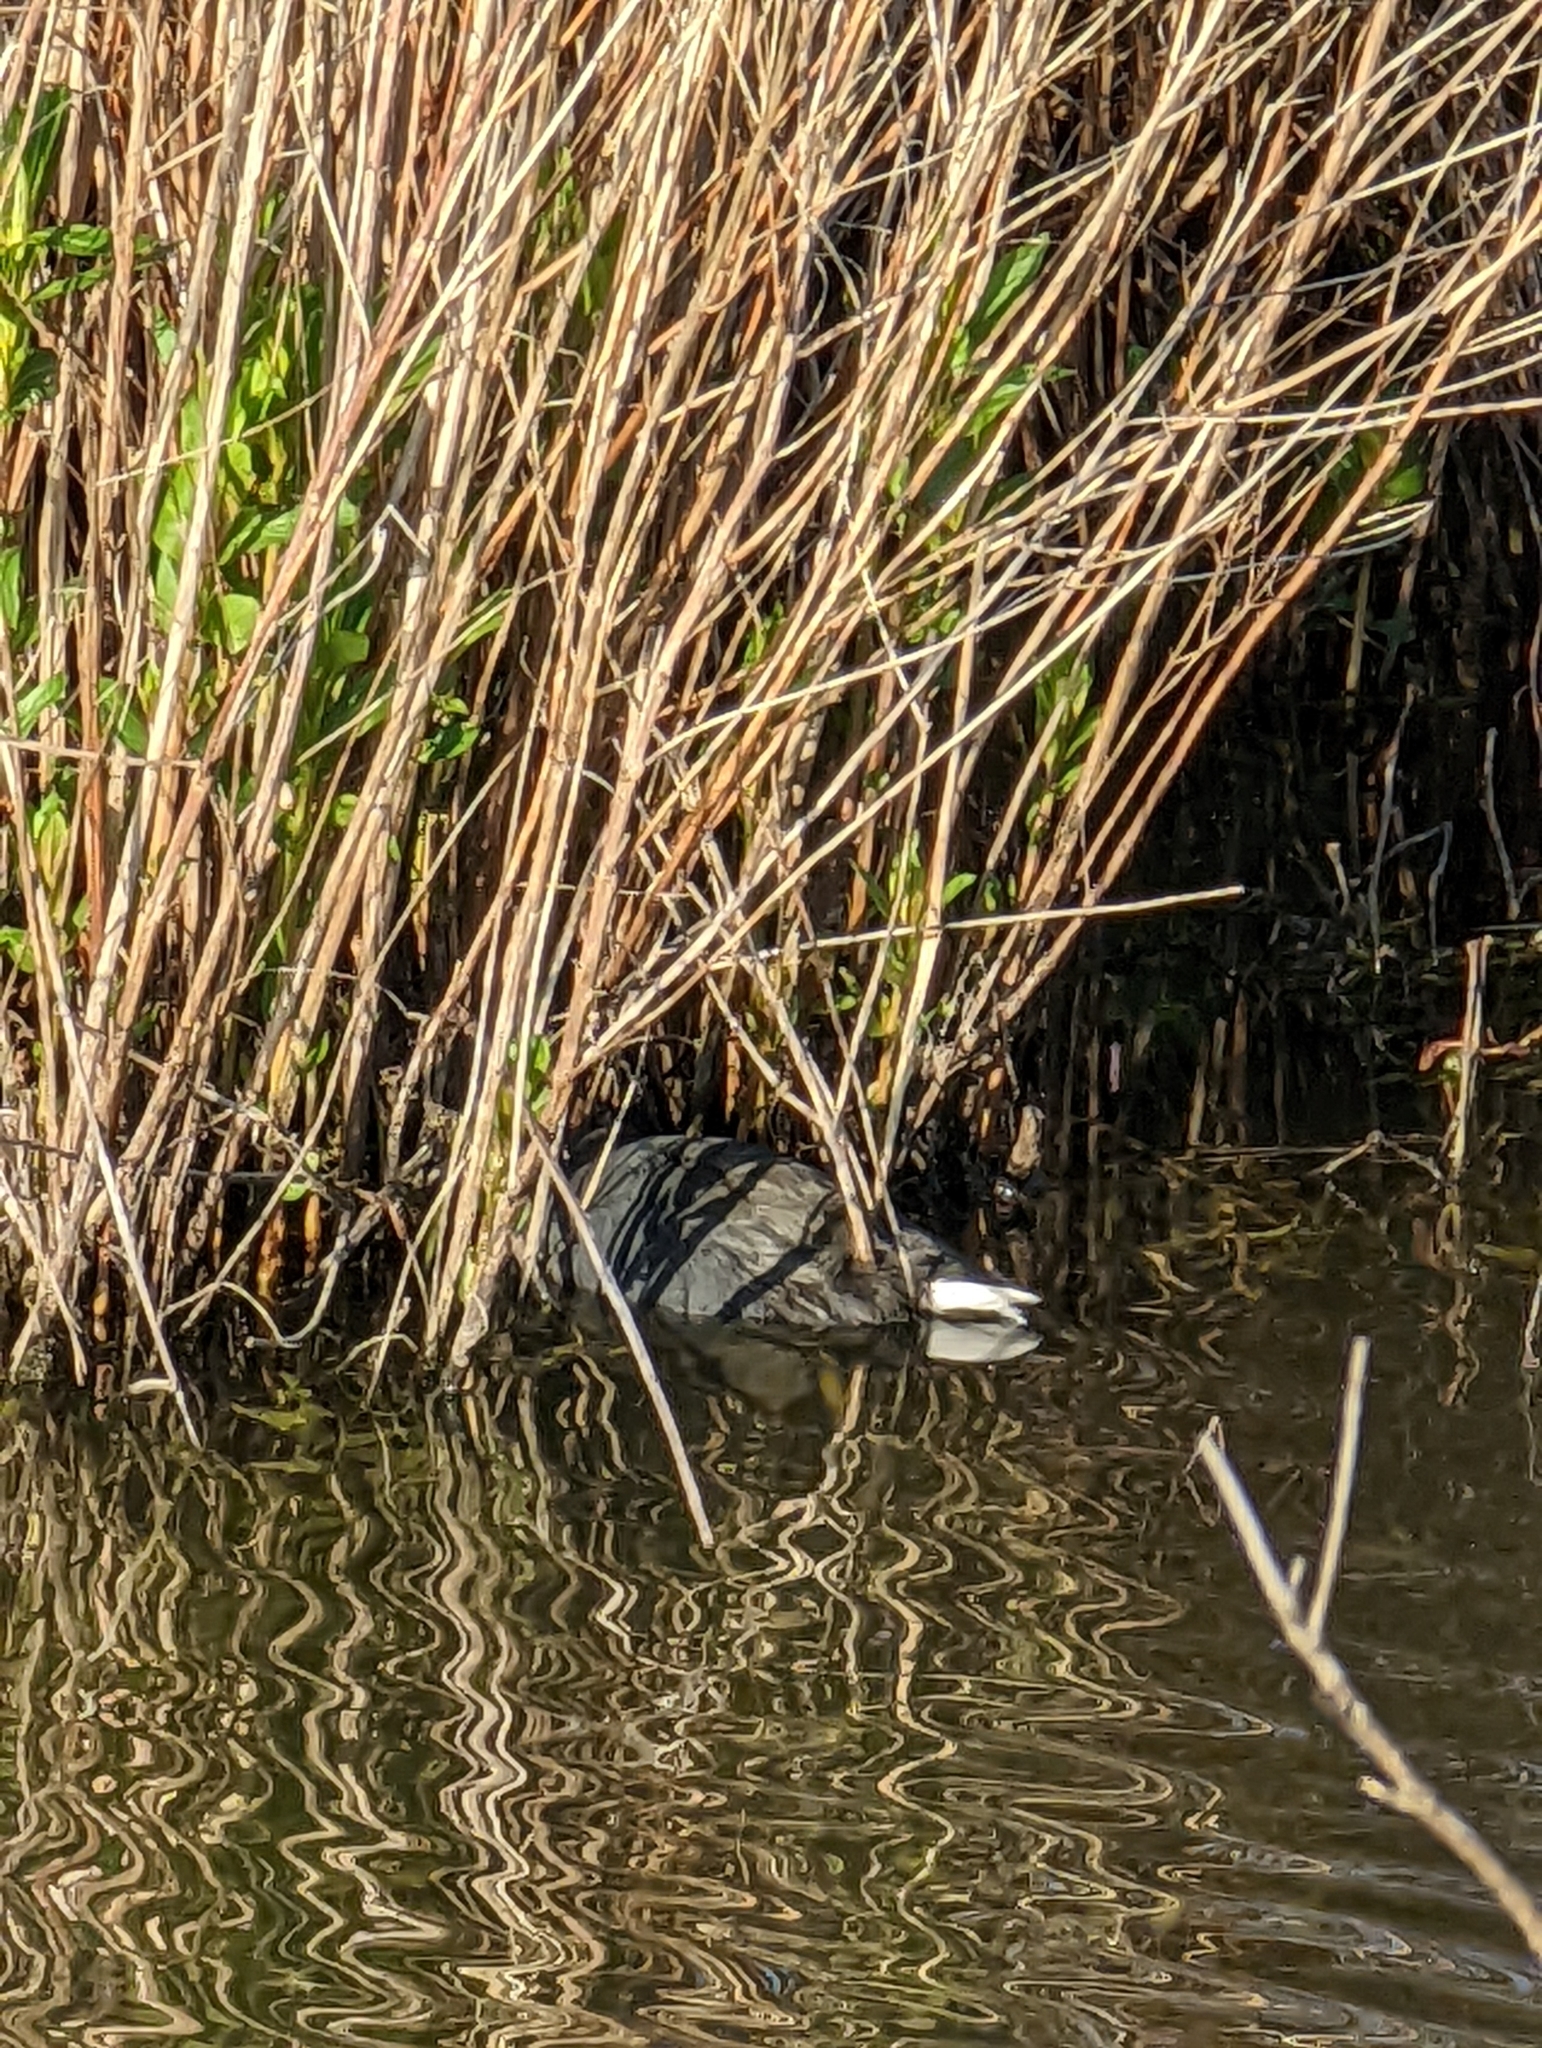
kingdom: Animalia
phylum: Chordata
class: Aves
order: Gruiformes
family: Rallidae
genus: Fulica
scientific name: Fulica americana
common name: American coot
